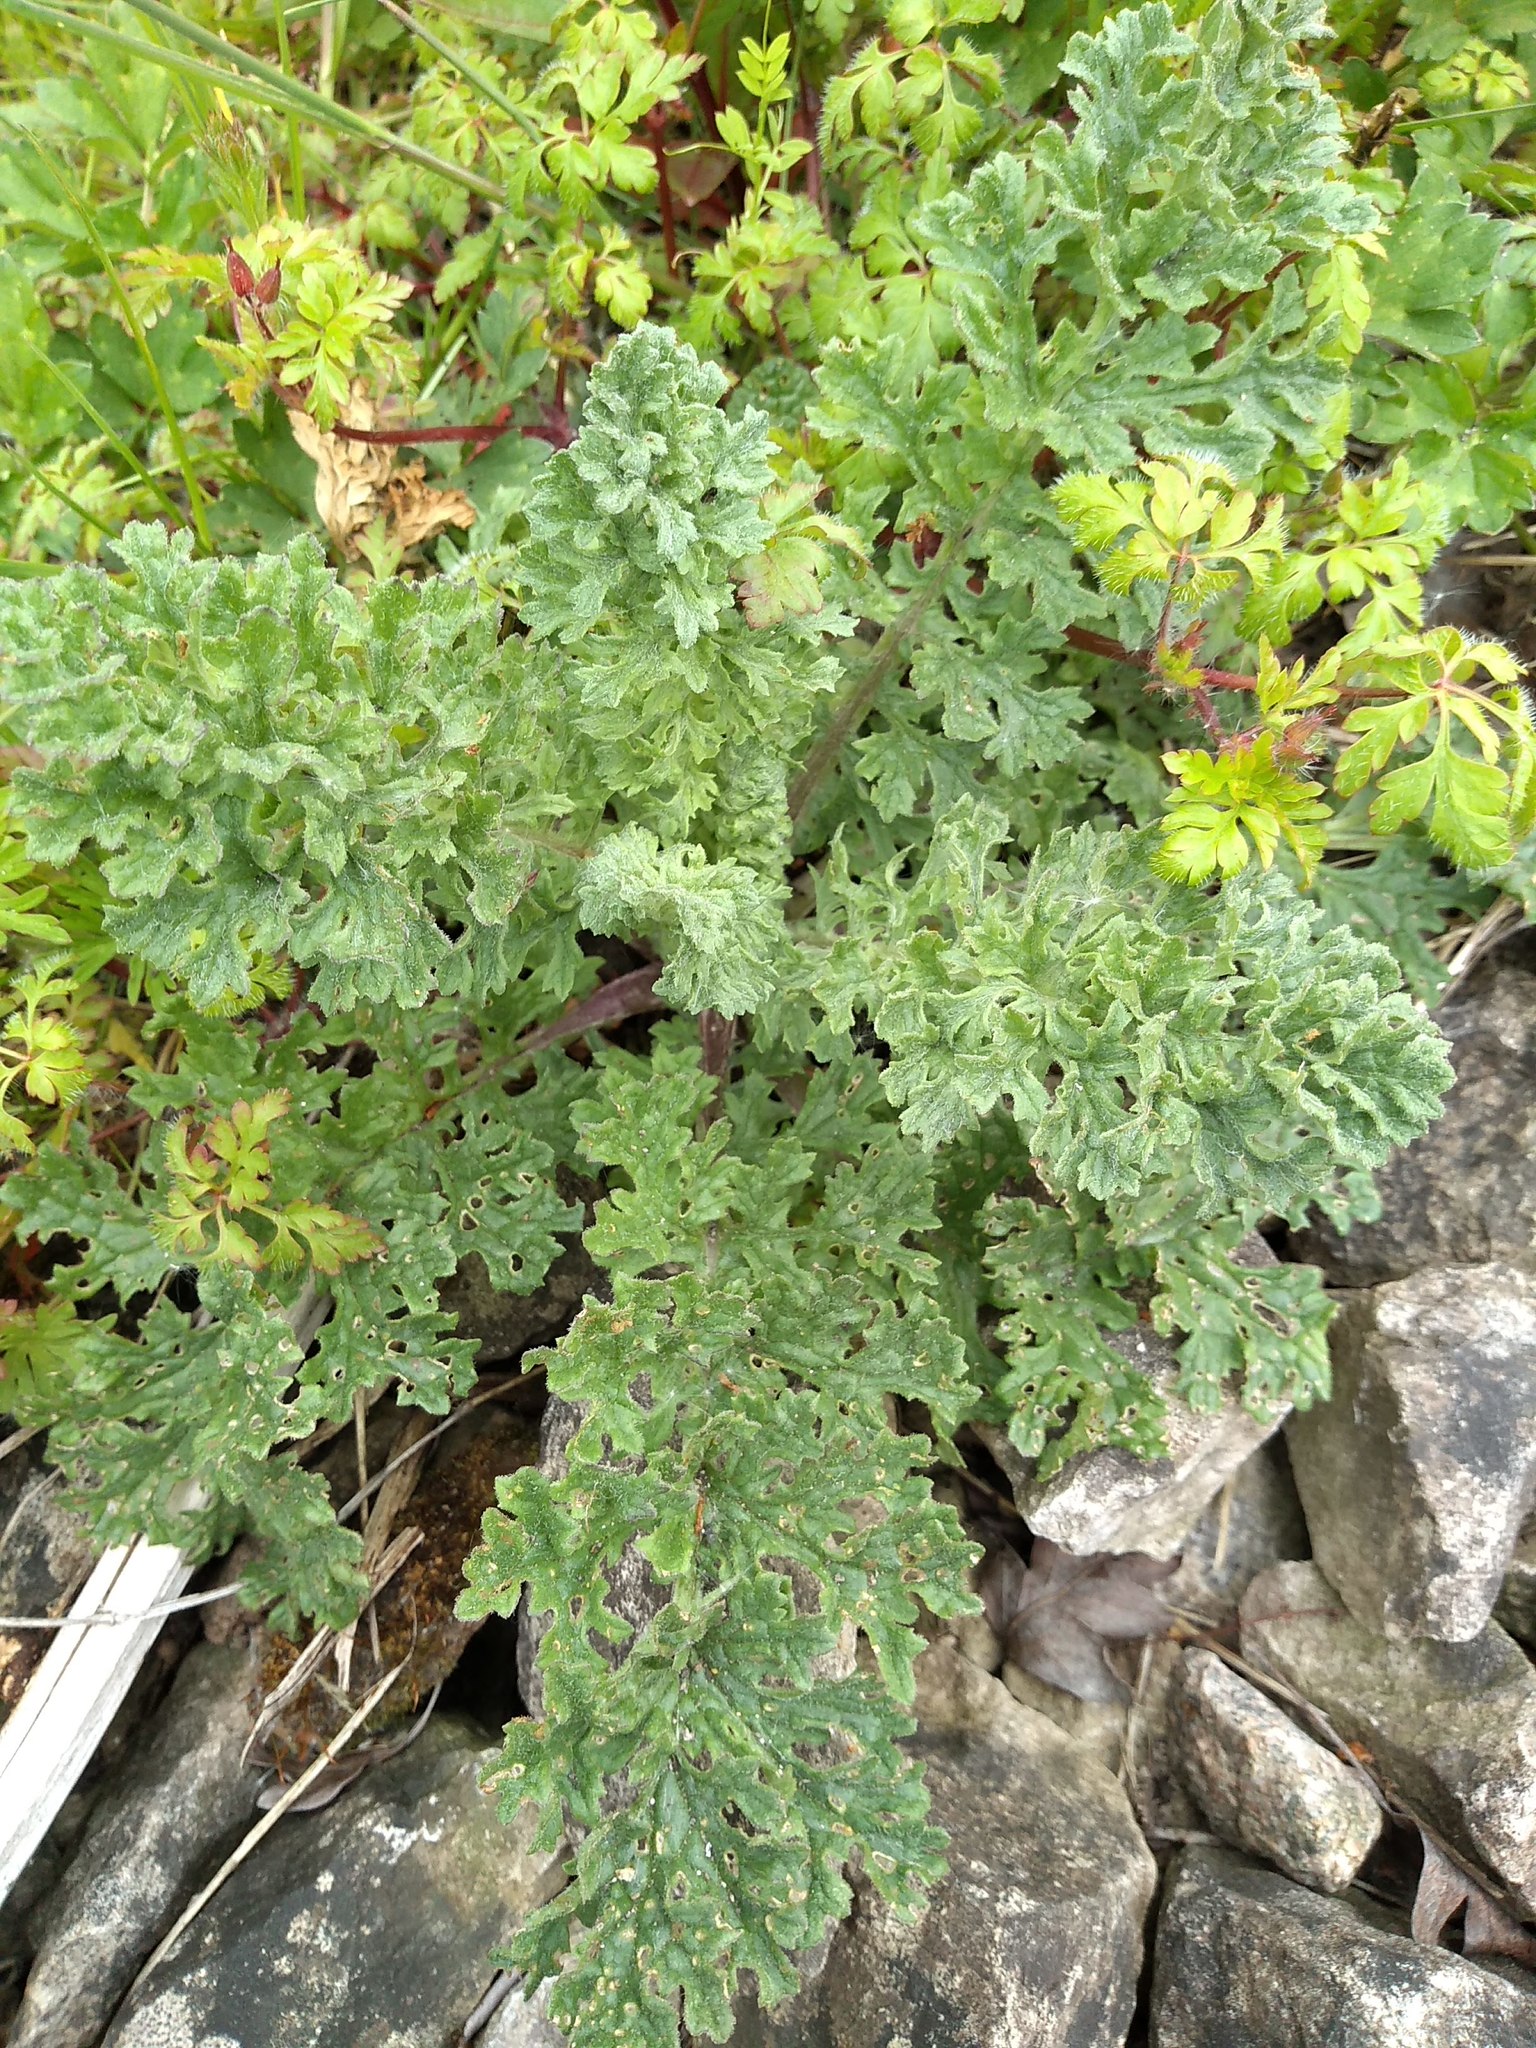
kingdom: Plantae
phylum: Tracheophyta
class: Magnoliopsida
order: Asterales
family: Asteraceae
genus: Jacobaea
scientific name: Jacobaea vulgaris
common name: Stinking willie
